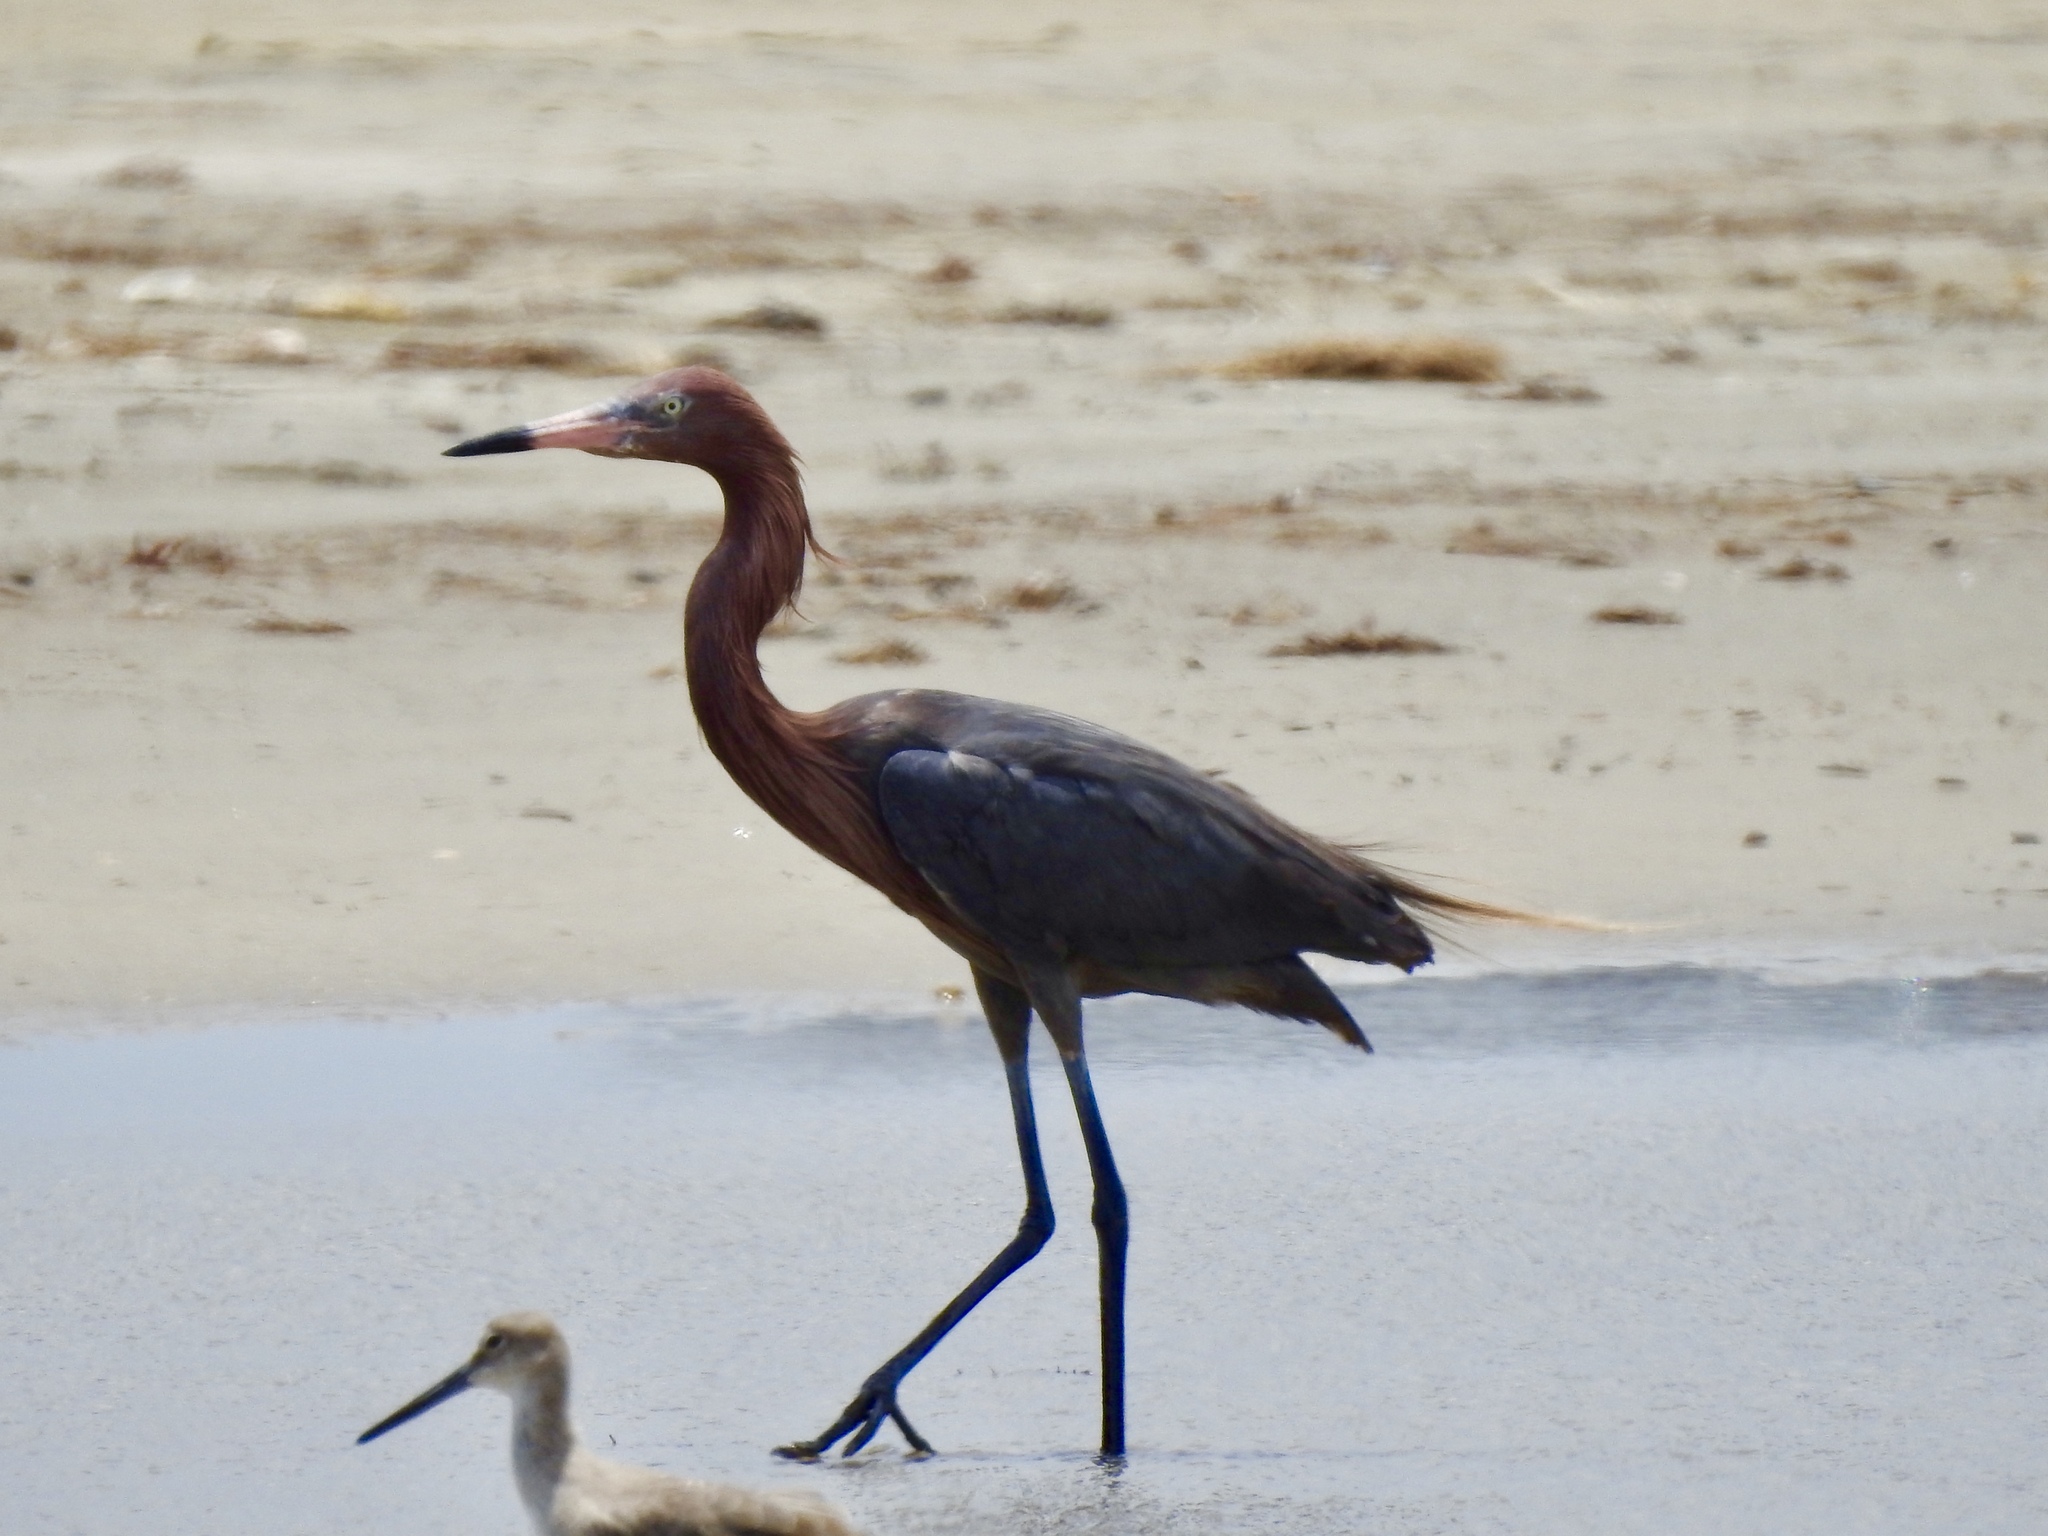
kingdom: Animalia
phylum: Chordata
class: Aves
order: Pelecaniformes
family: Ardeidae
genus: Egretta
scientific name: Egretta rufescens
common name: Reddish egret
